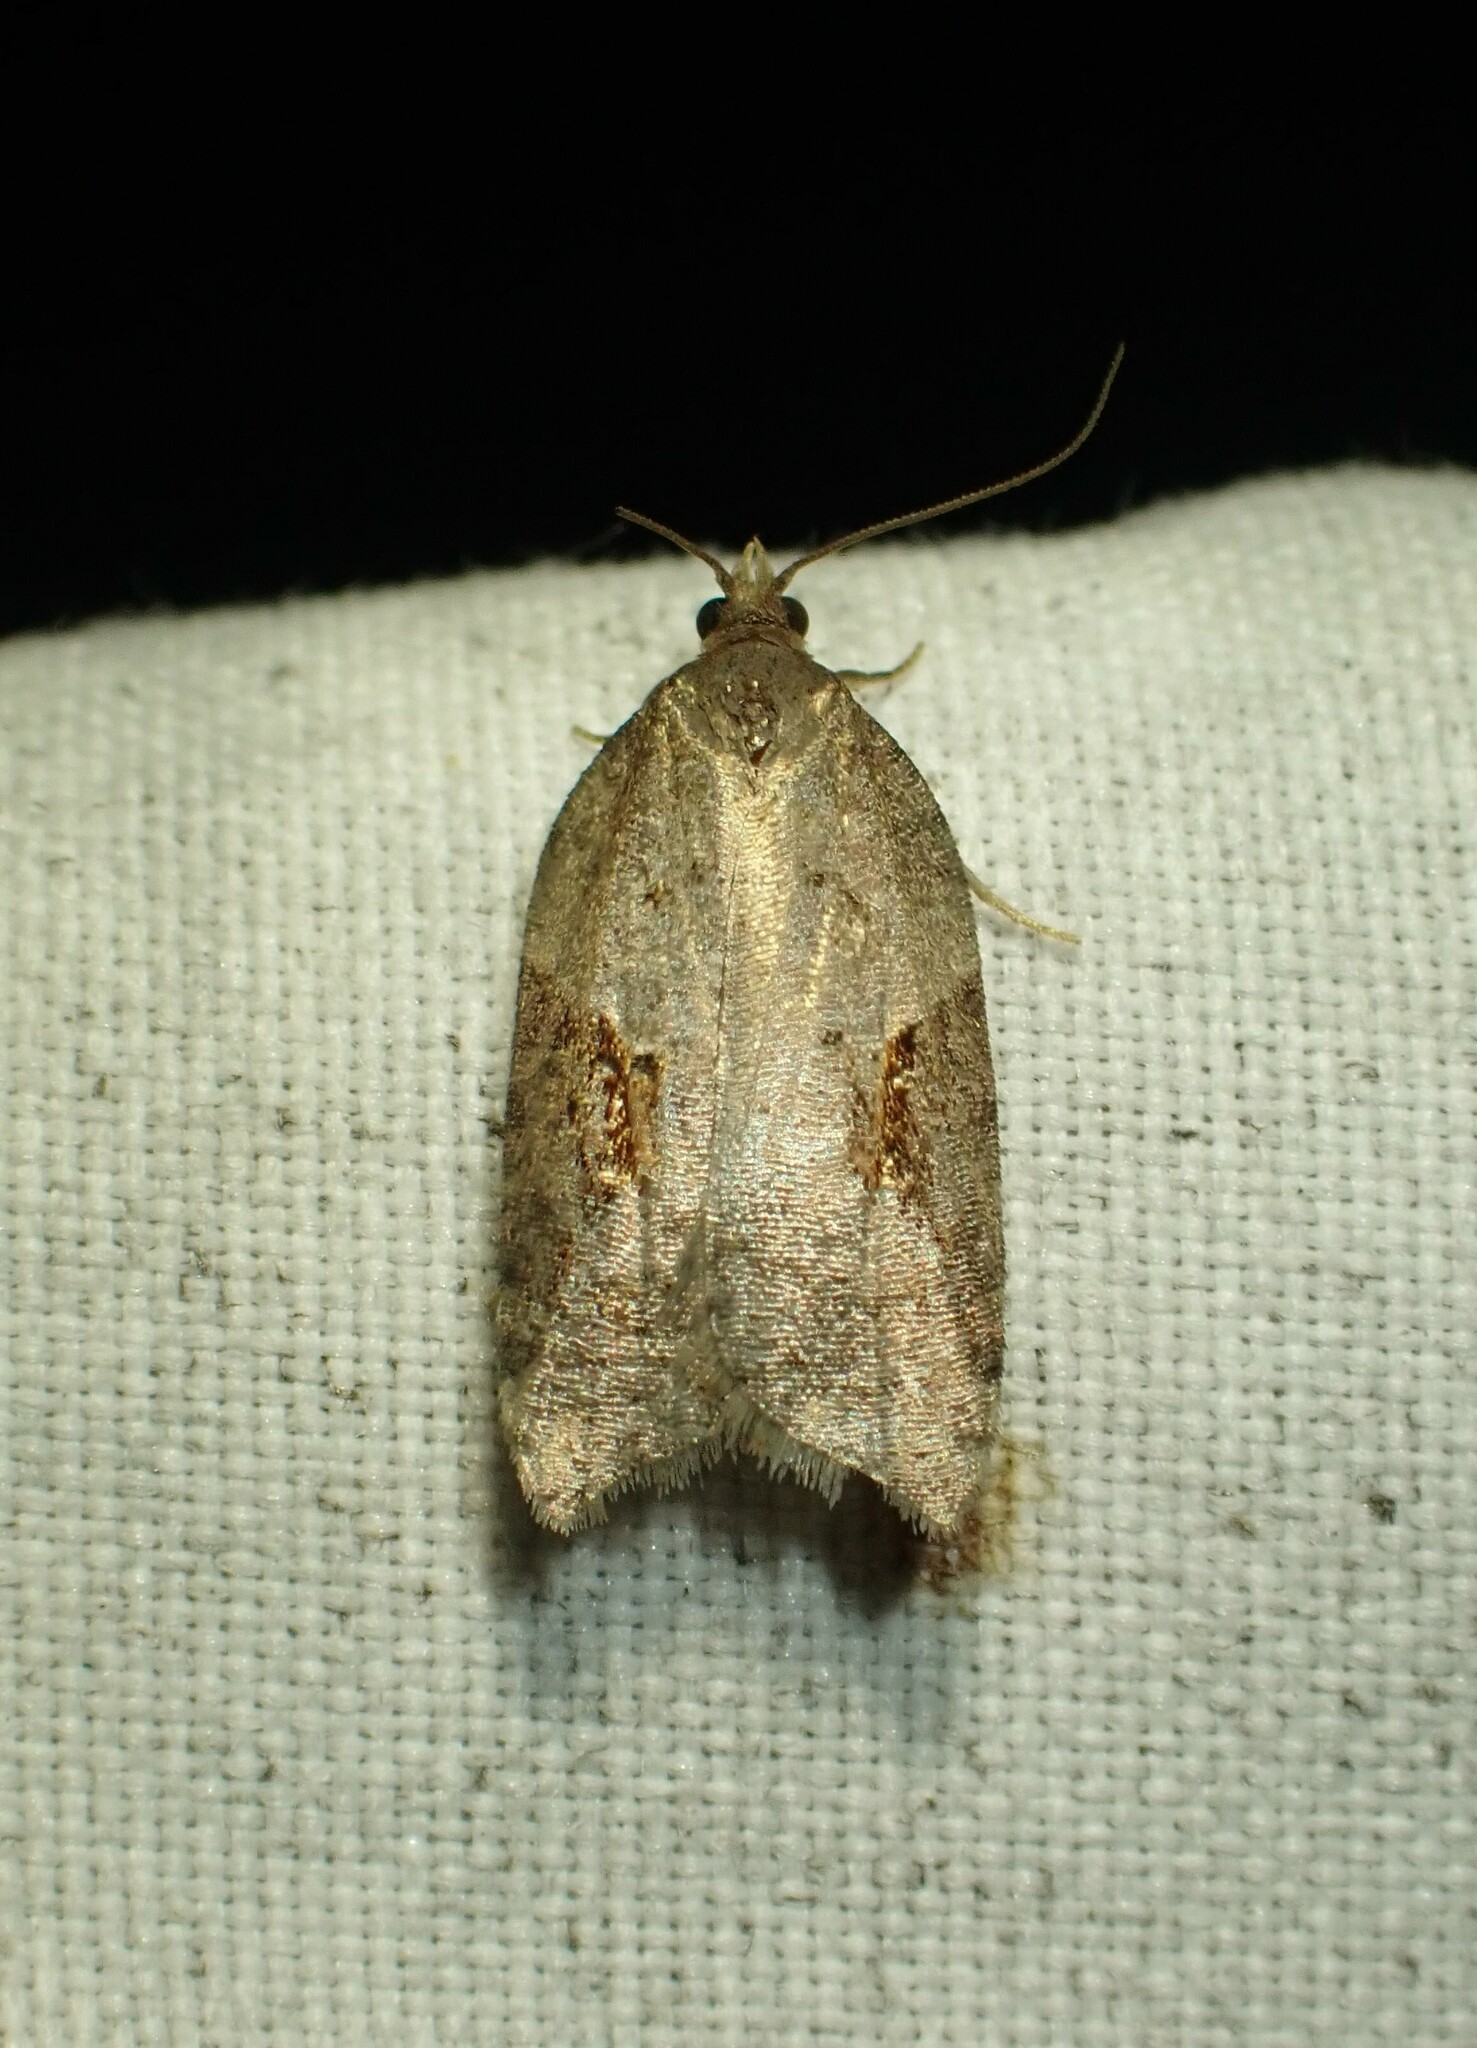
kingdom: Animalia
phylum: Arthropoda
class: Insecta
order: Lepidoptera
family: Tortricidae
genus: Acleris
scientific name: Acleris macdunnoughi
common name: Macdunnough's acleris
